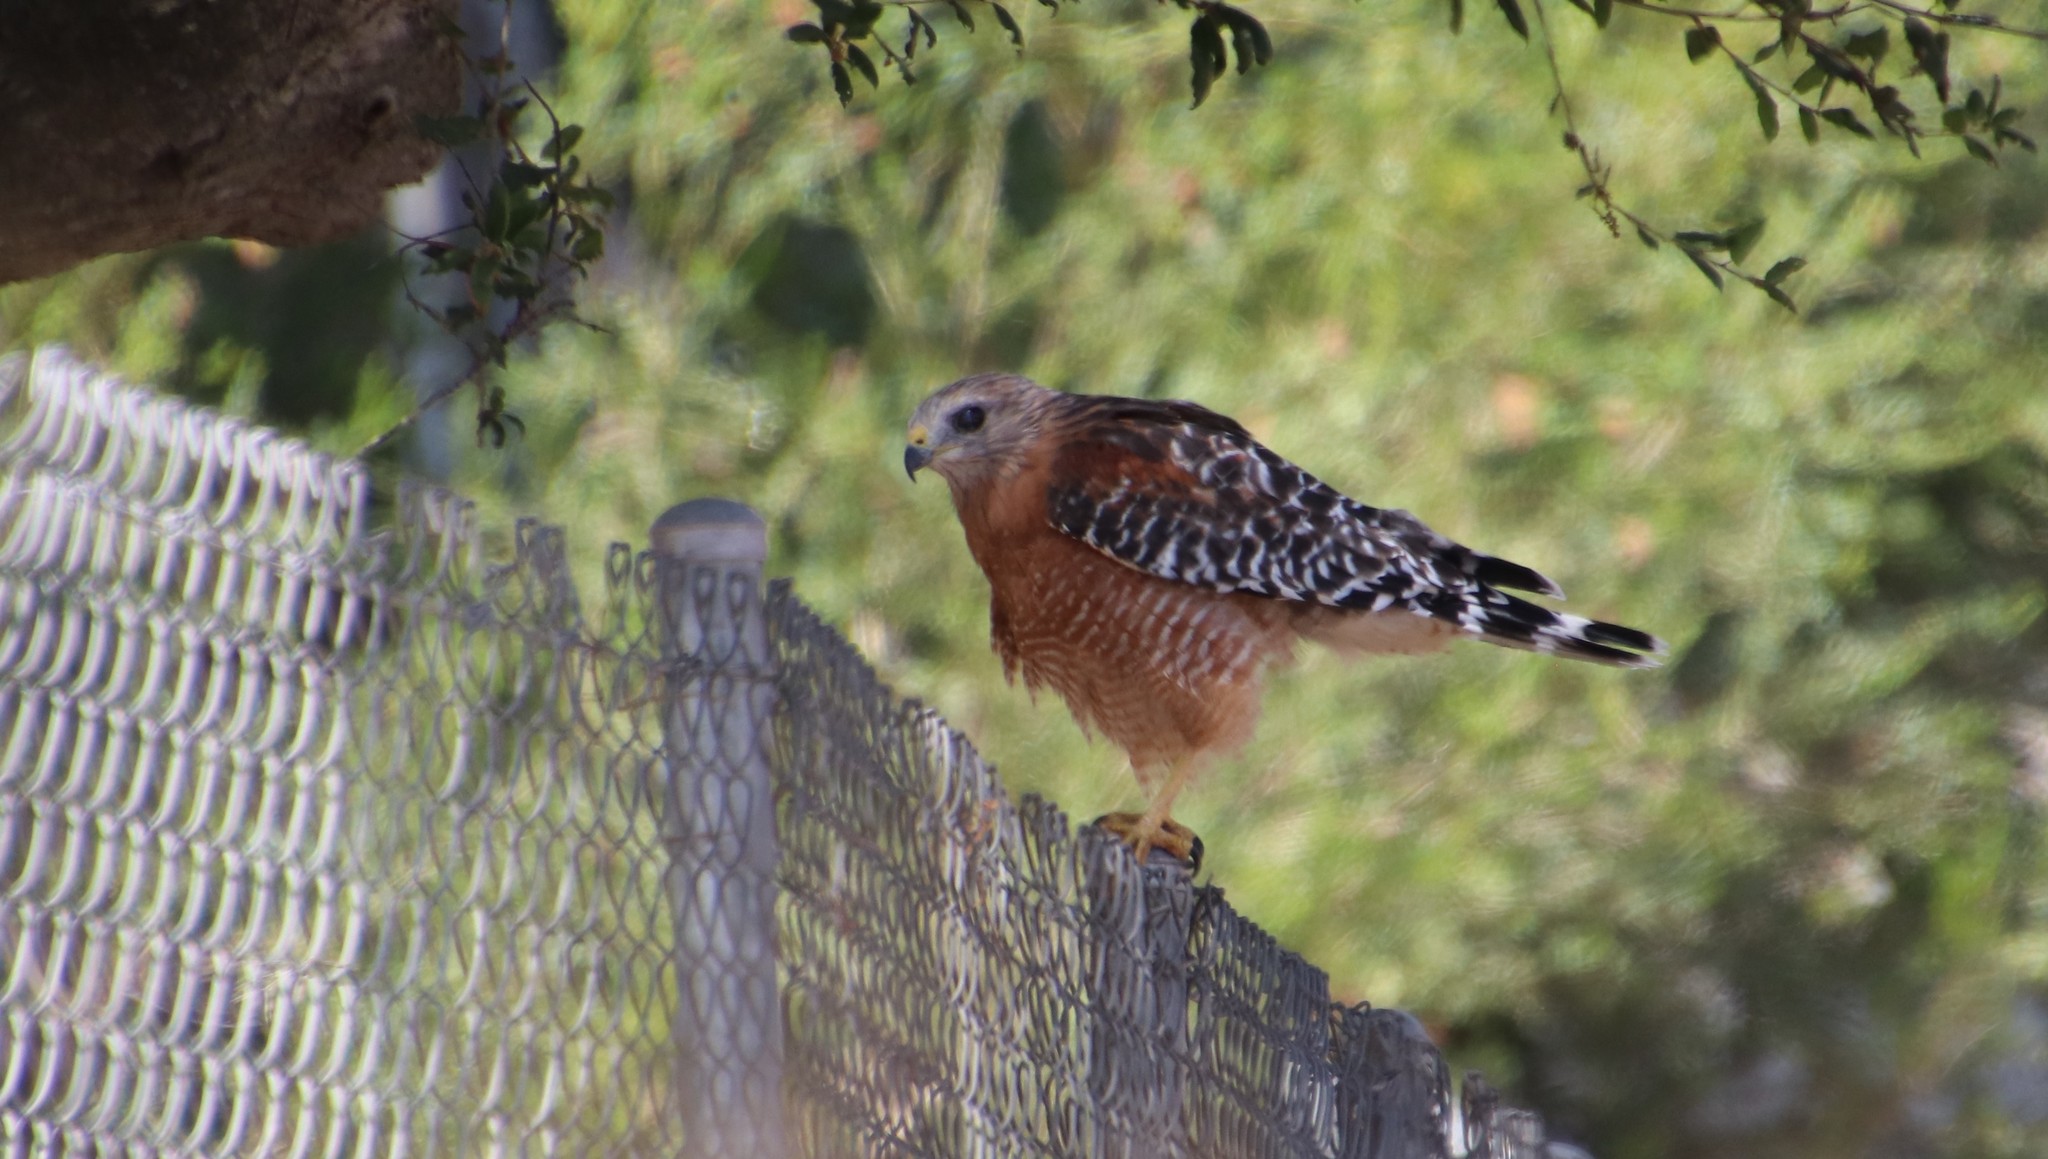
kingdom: Animalia
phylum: Chordata
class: Aves
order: Accipitriformes
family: Accipitridae
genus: Buteo
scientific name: Buteo lineatus
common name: Red-shouldered hawk
